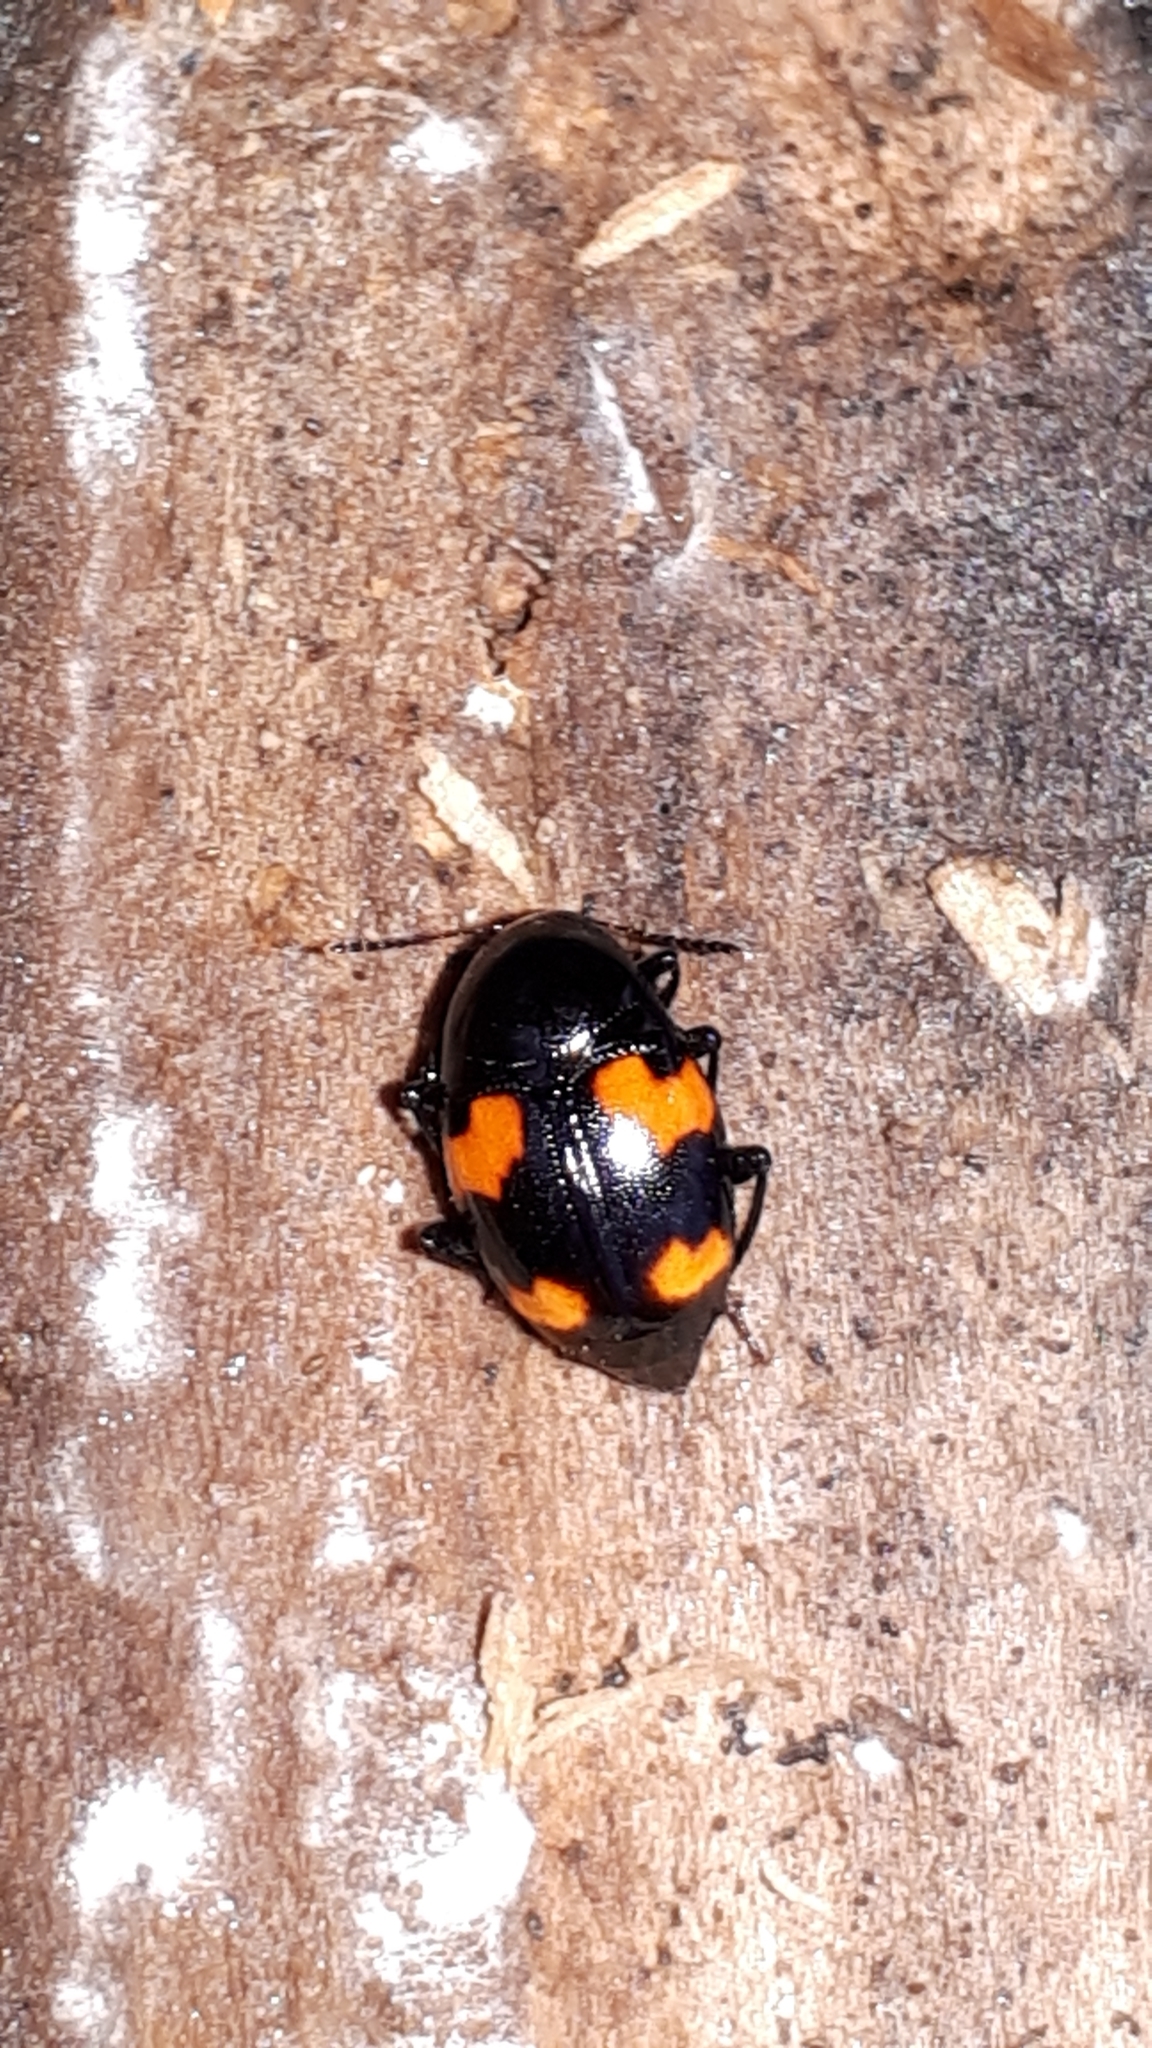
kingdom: Animalia
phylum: Arthropoda
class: Insecta
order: Coleoptera
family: Staphylinidae
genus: Scaphidium
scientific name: Scaphidium quadrimaculatum
